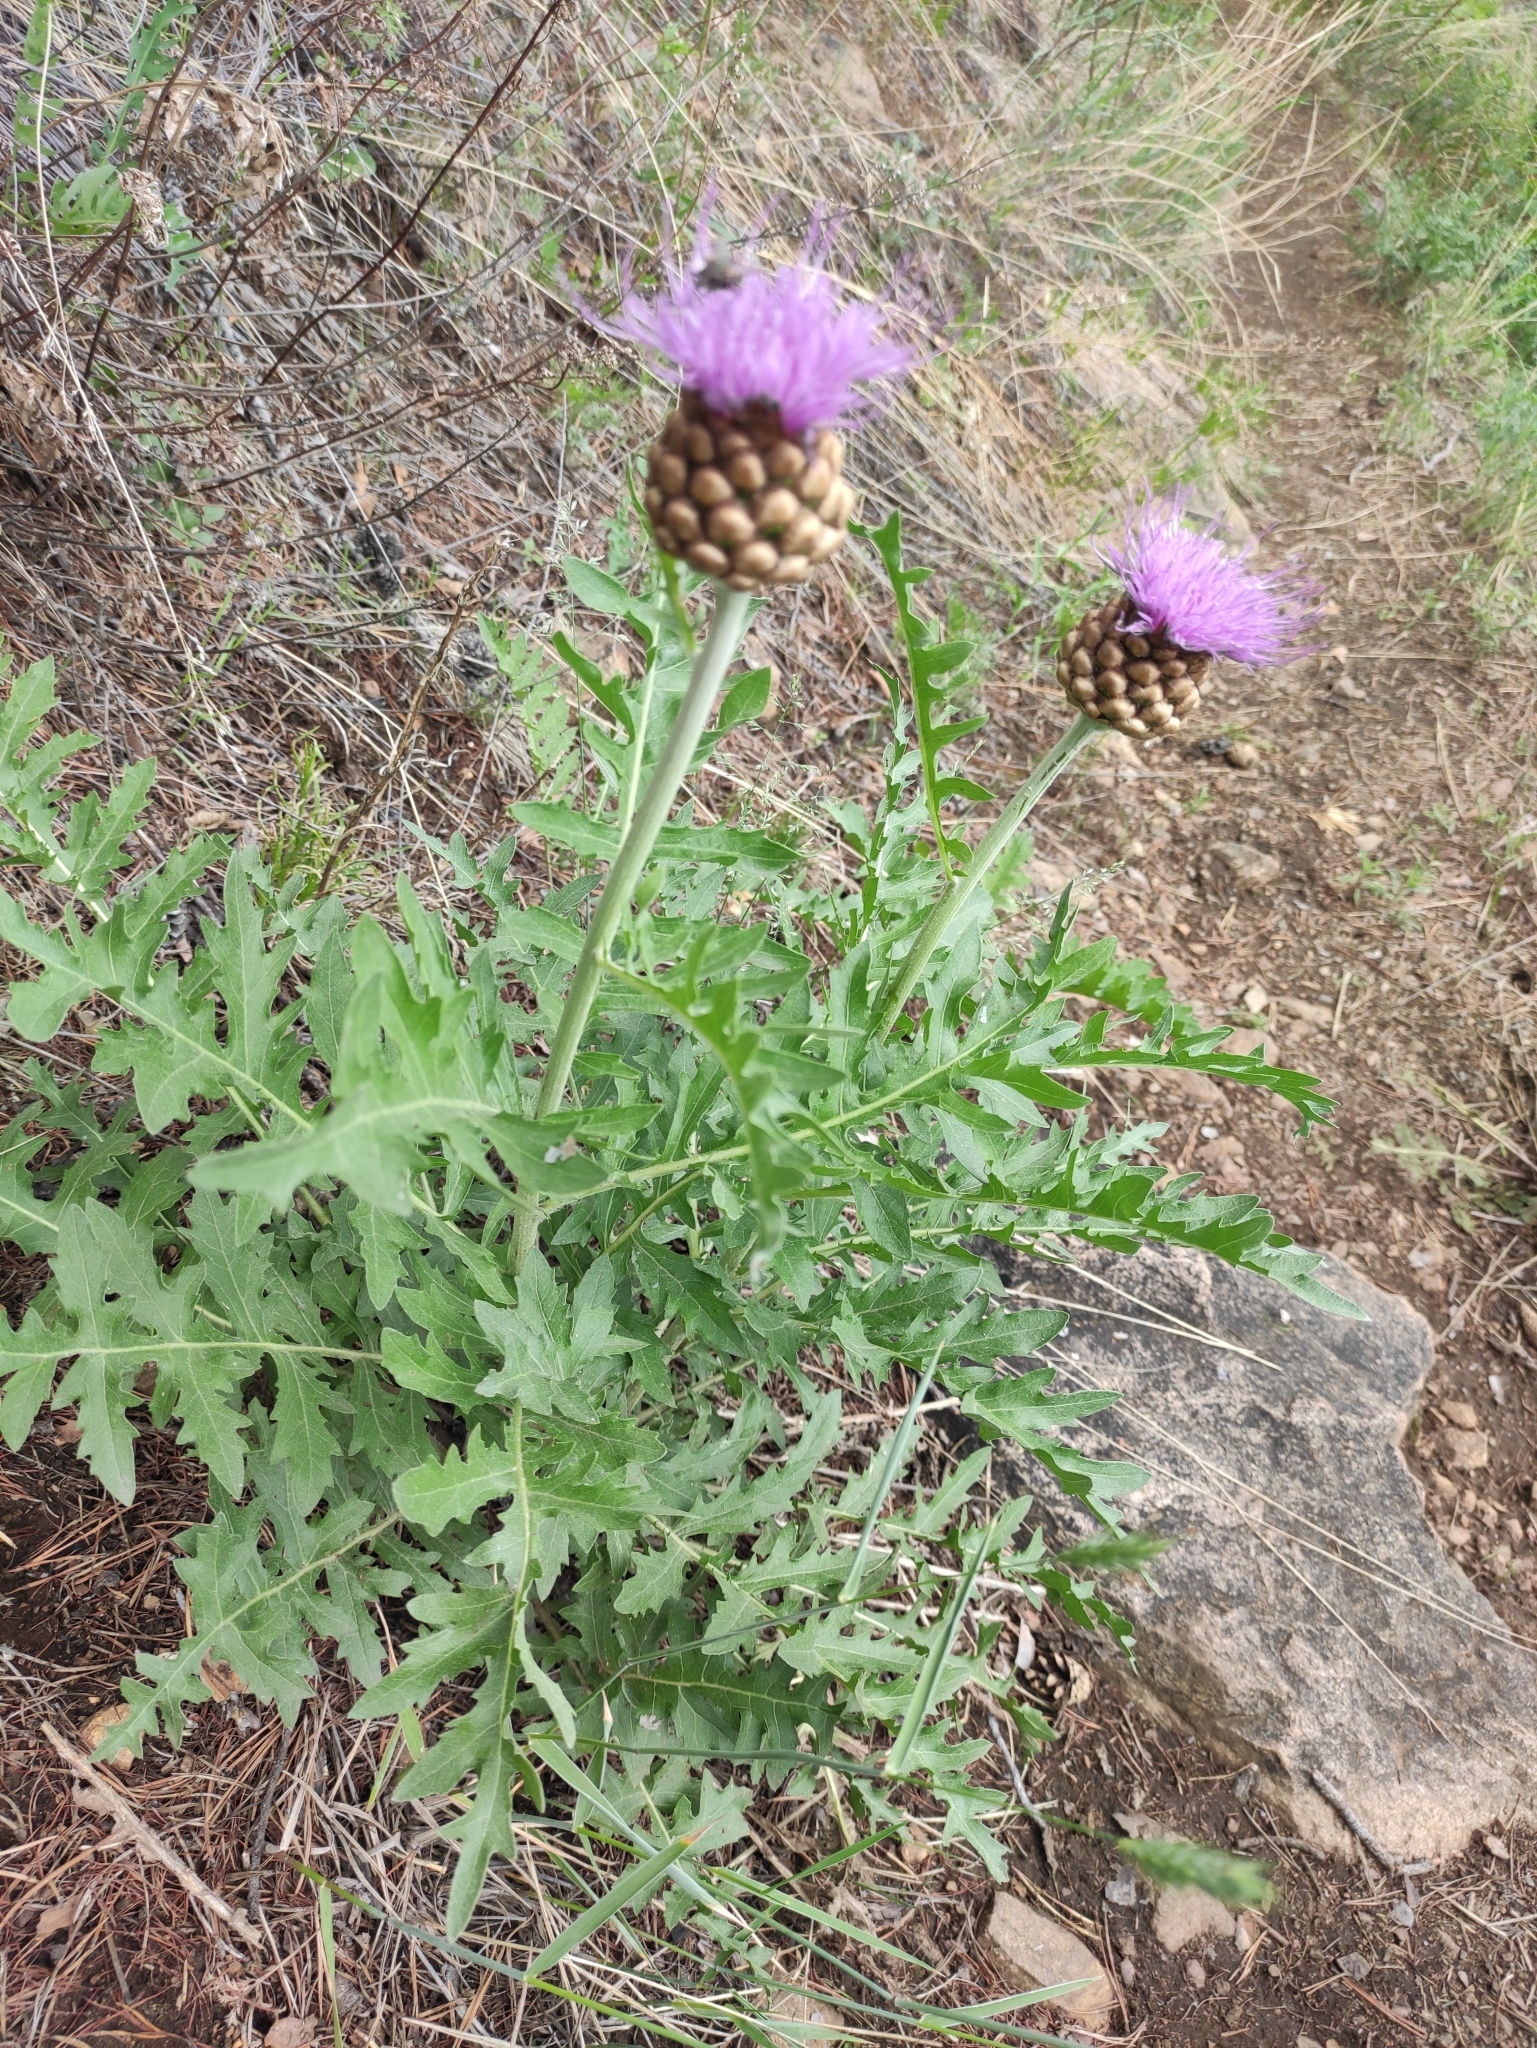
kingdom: Plantae
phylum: Tracheophyta
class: Magnoliopsida
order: Asterales
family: Asteraceae
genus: Leuzea
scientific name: Leuzea uniflora
